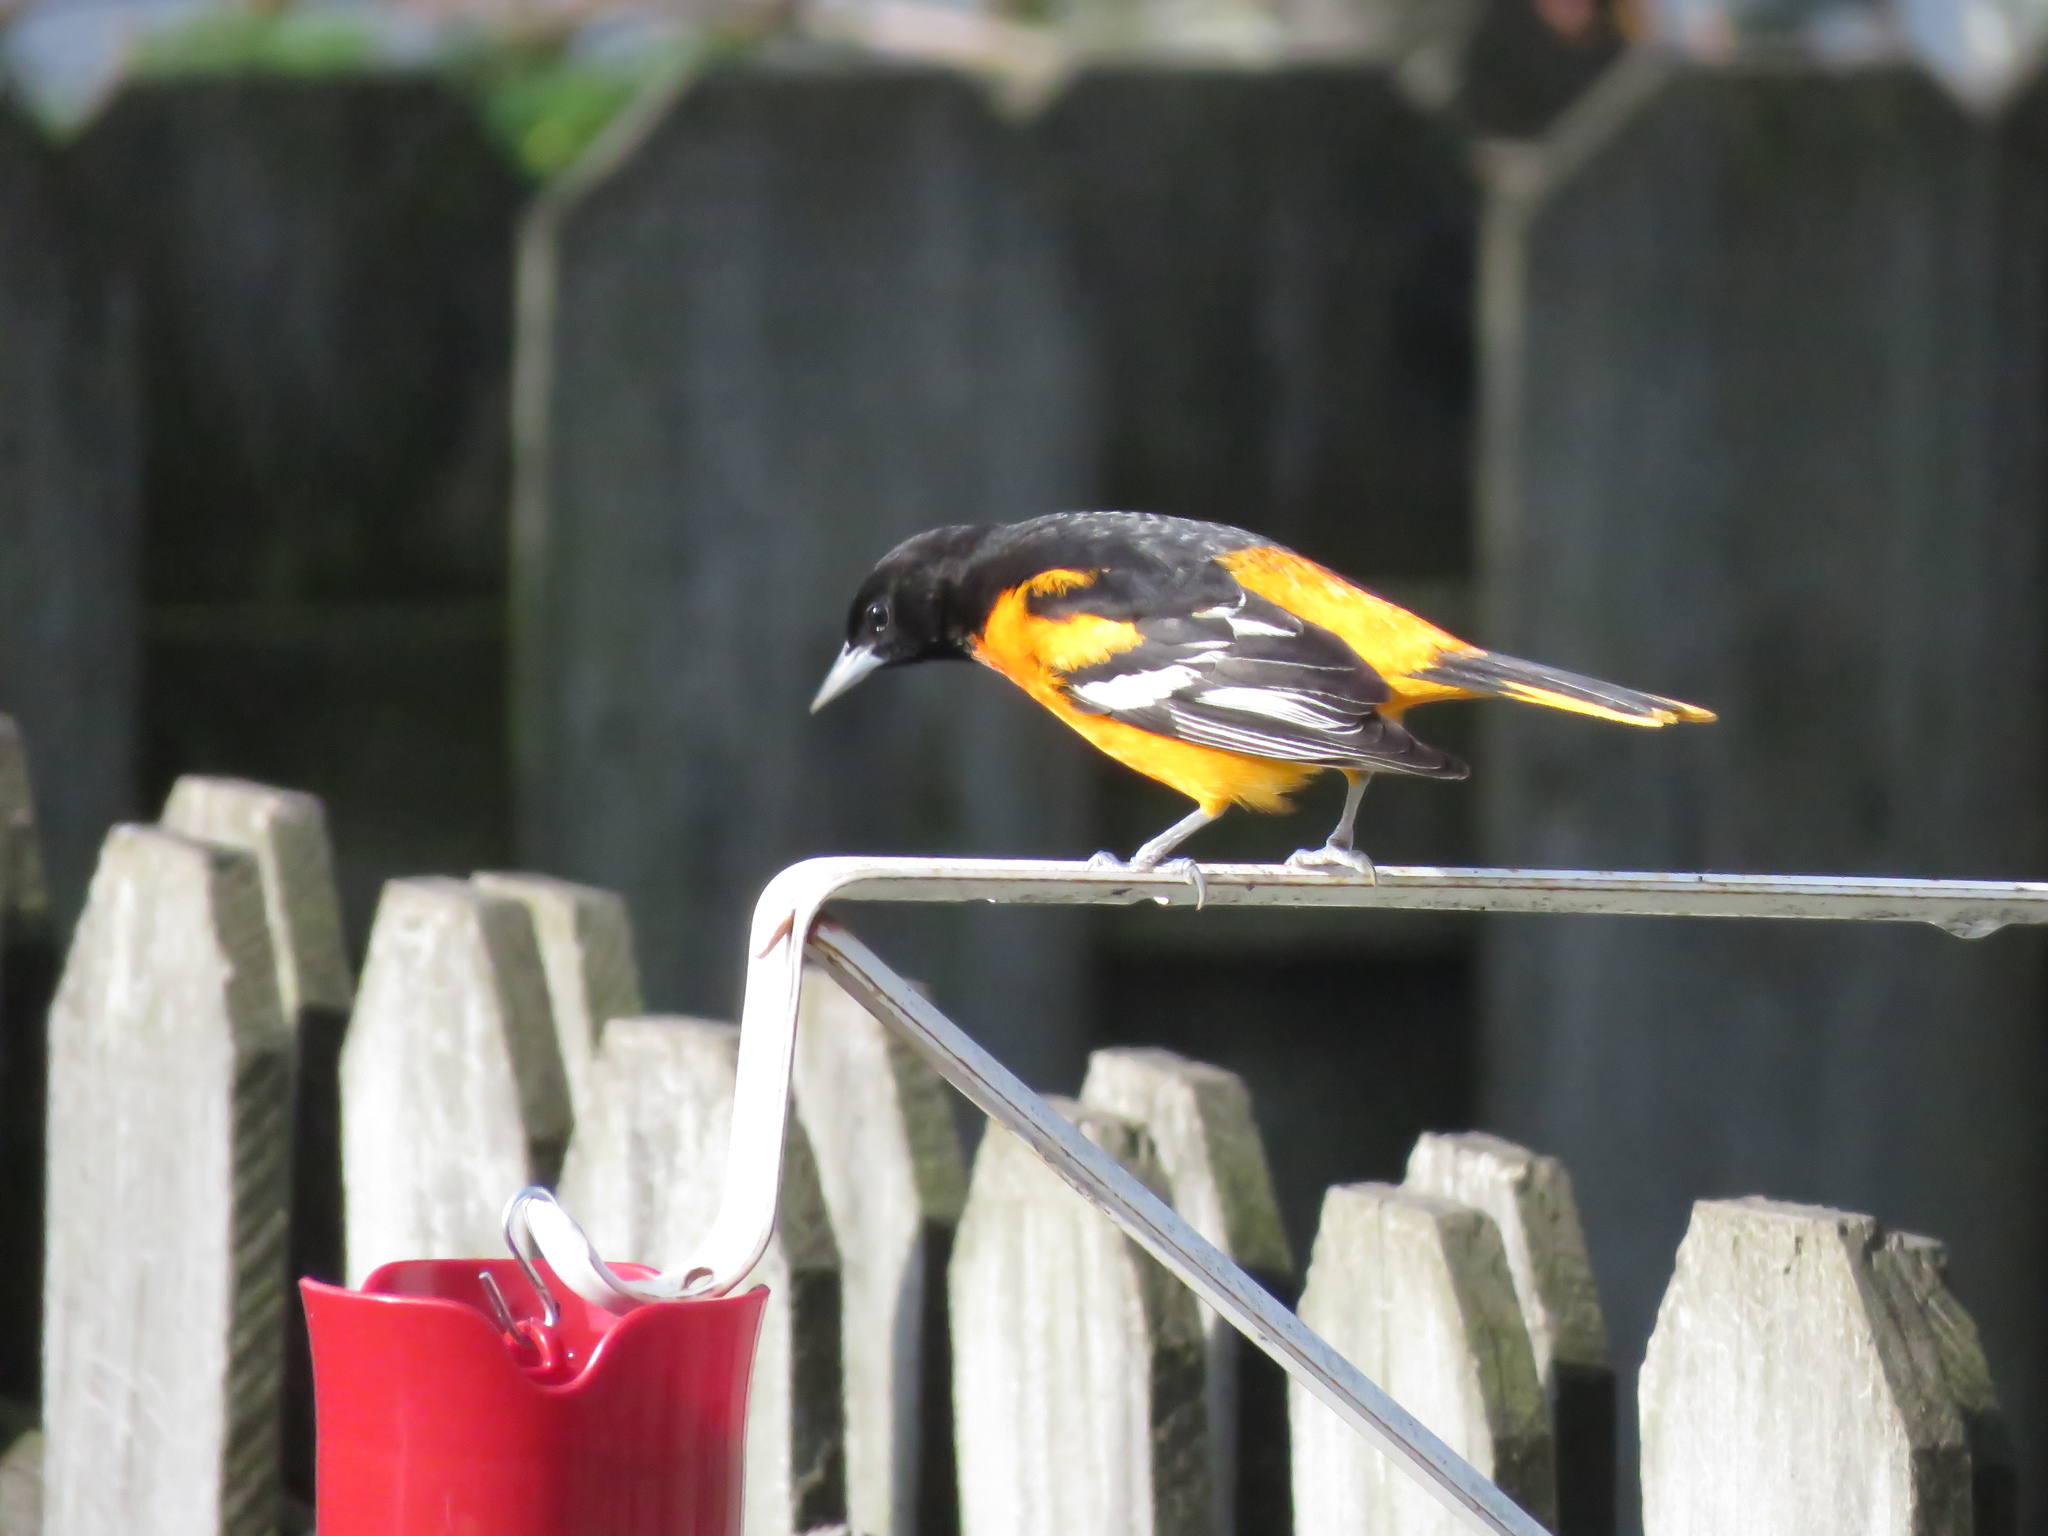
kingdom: Animalia
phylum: Chordata
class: Aves
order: Passeriformes
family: Icteridae
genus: Icterus
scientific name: Icterus galbula
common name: Baltimore oriole
